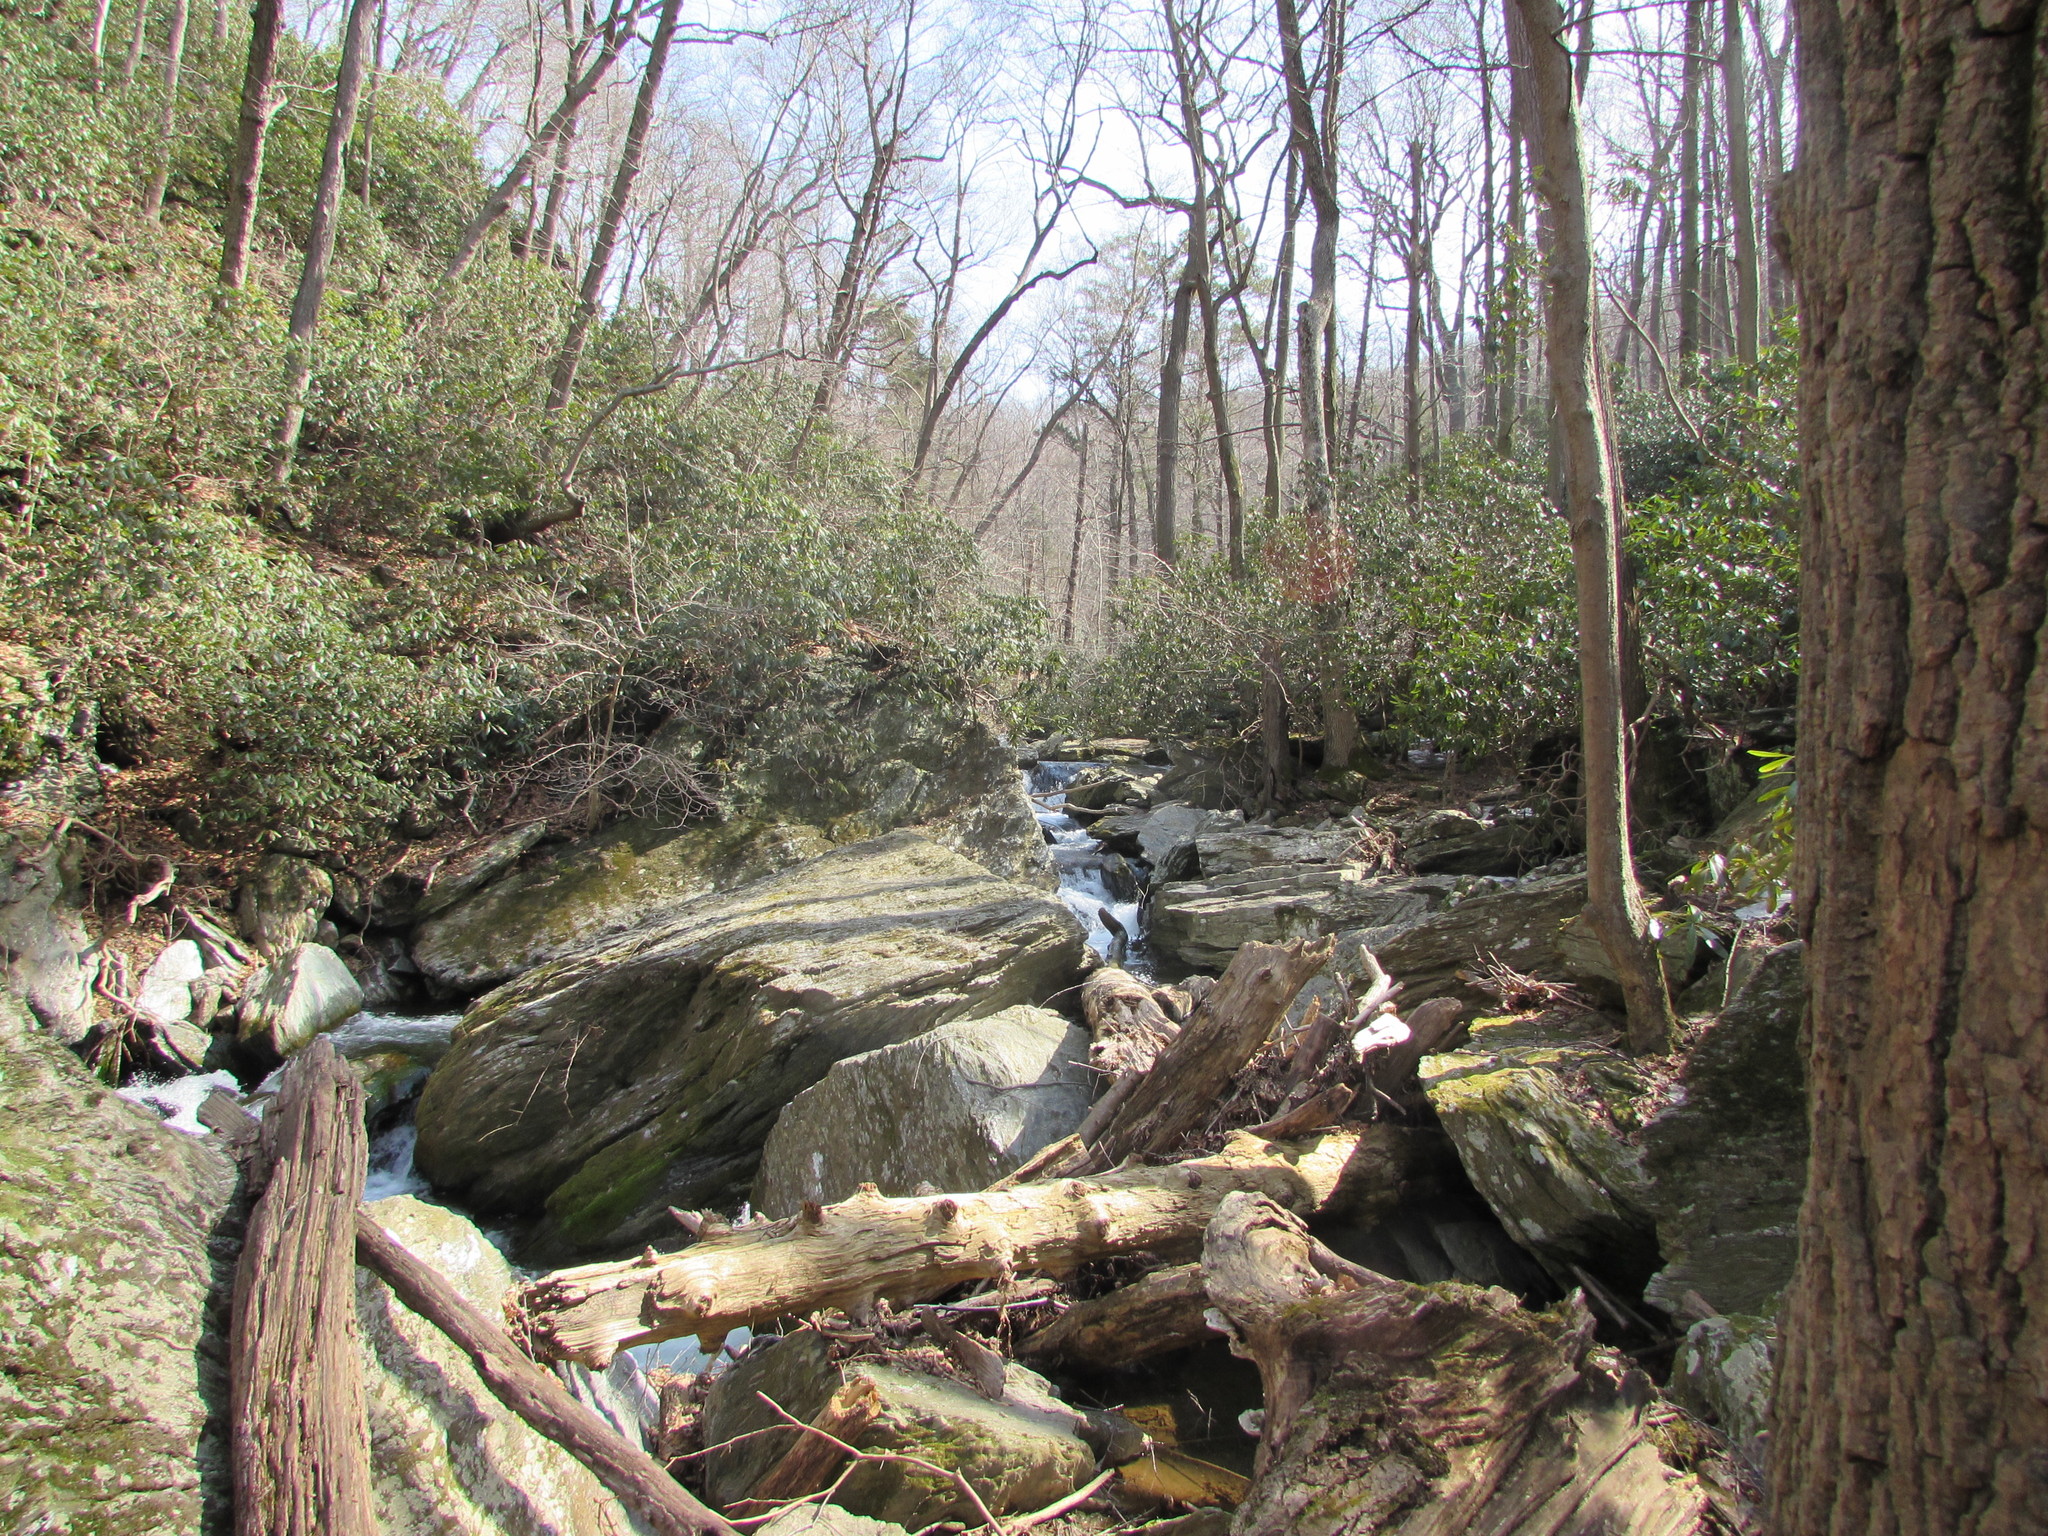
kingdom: Plantae
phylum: Tracheophyta
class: Magnoliopsida
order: Ericales
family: Ericaceae
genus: Rhododendron
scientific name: Rhododendron maximum
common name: Great rhododendron
